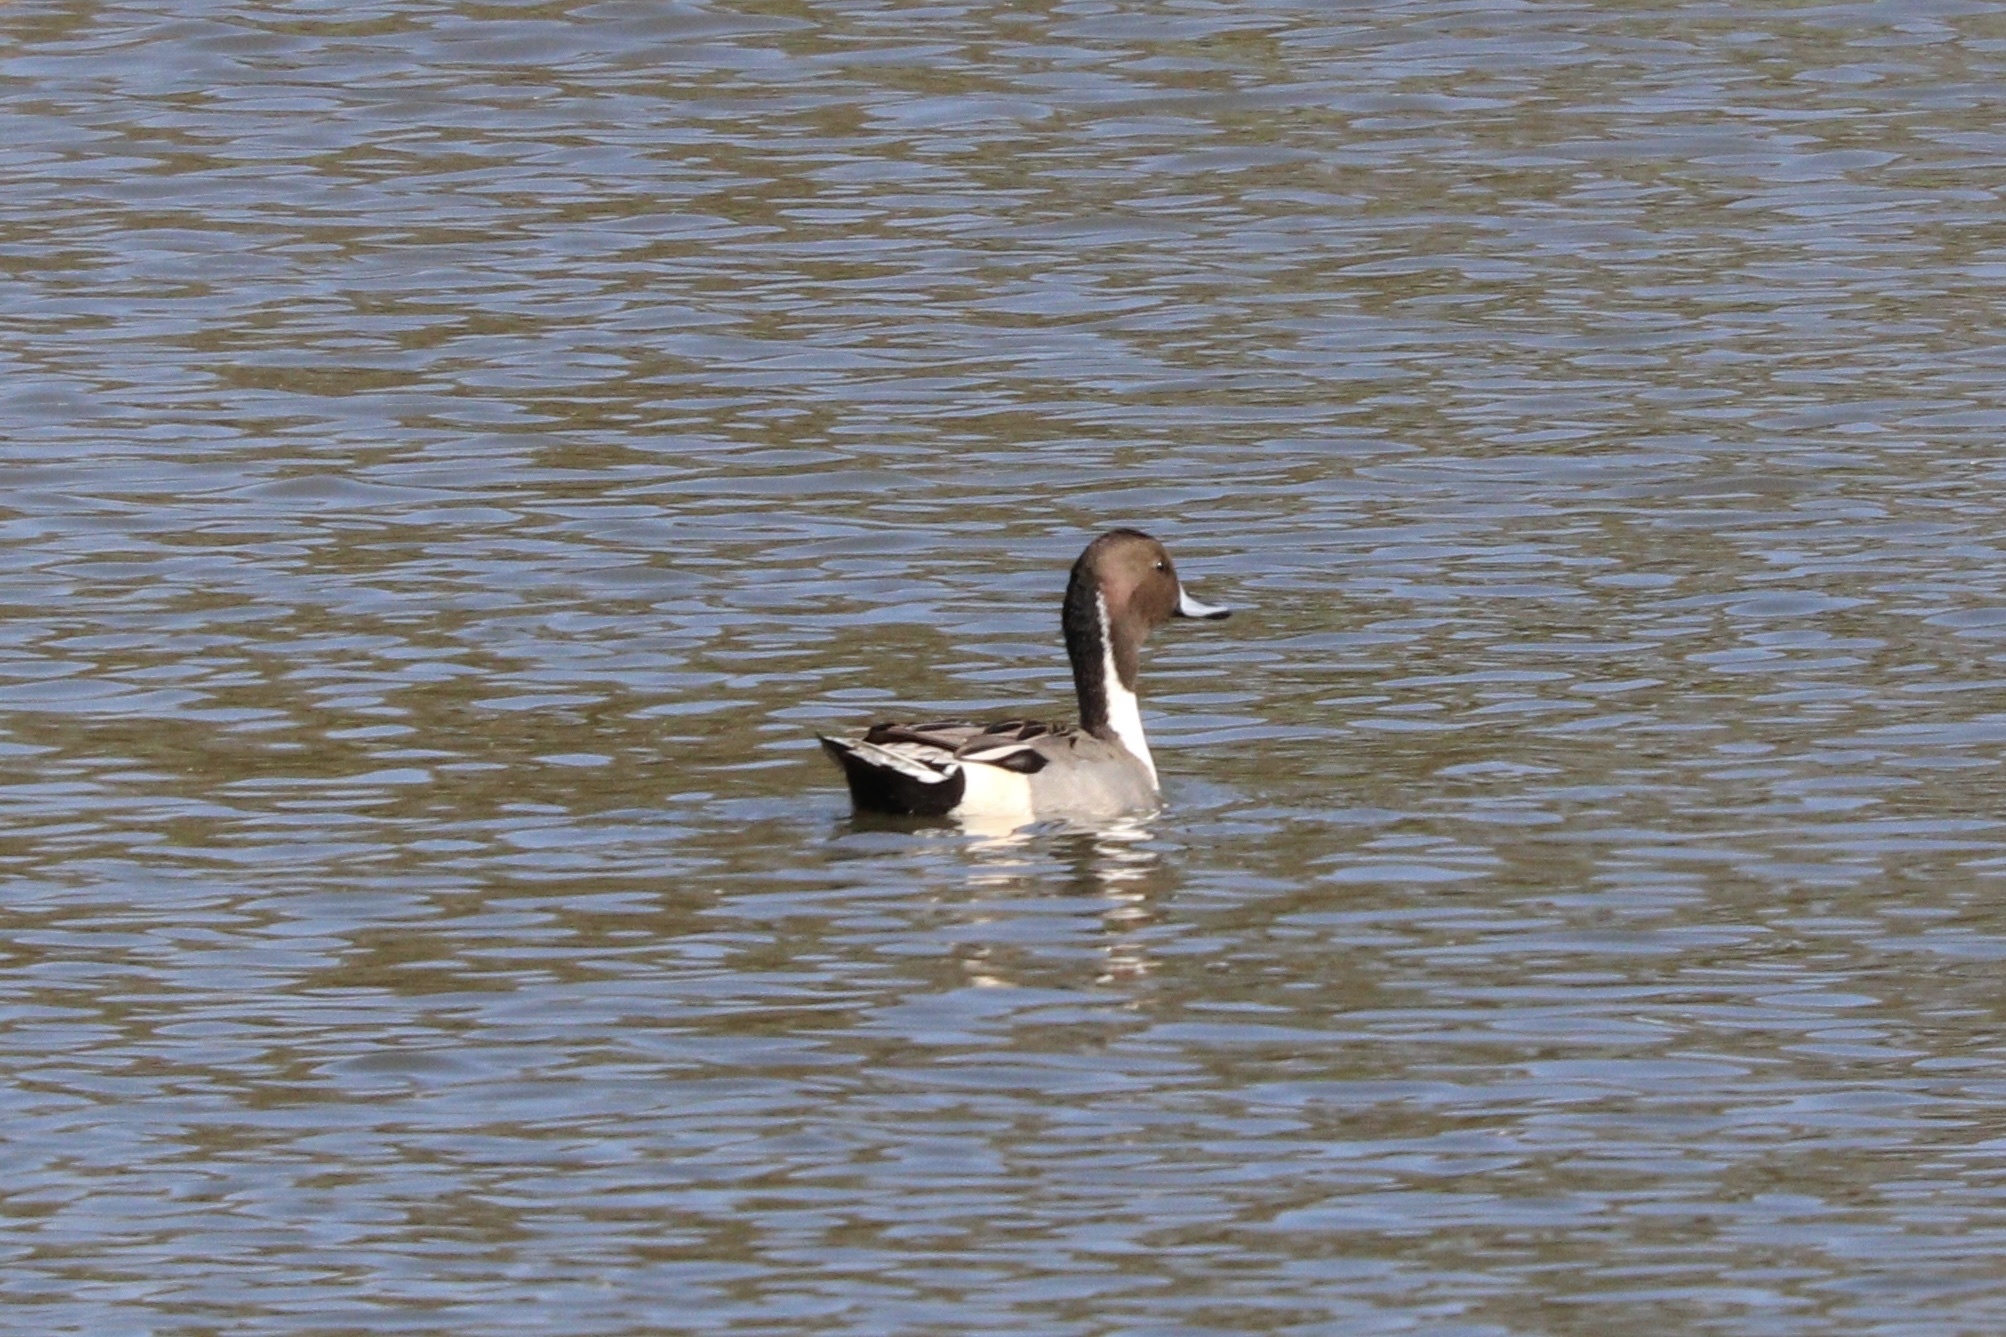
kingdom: Animalia
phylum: Chordata
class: Aves
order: Anseriformes
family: Anatidae
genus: Anas
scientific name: Anas acuta
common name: Northern pintail
